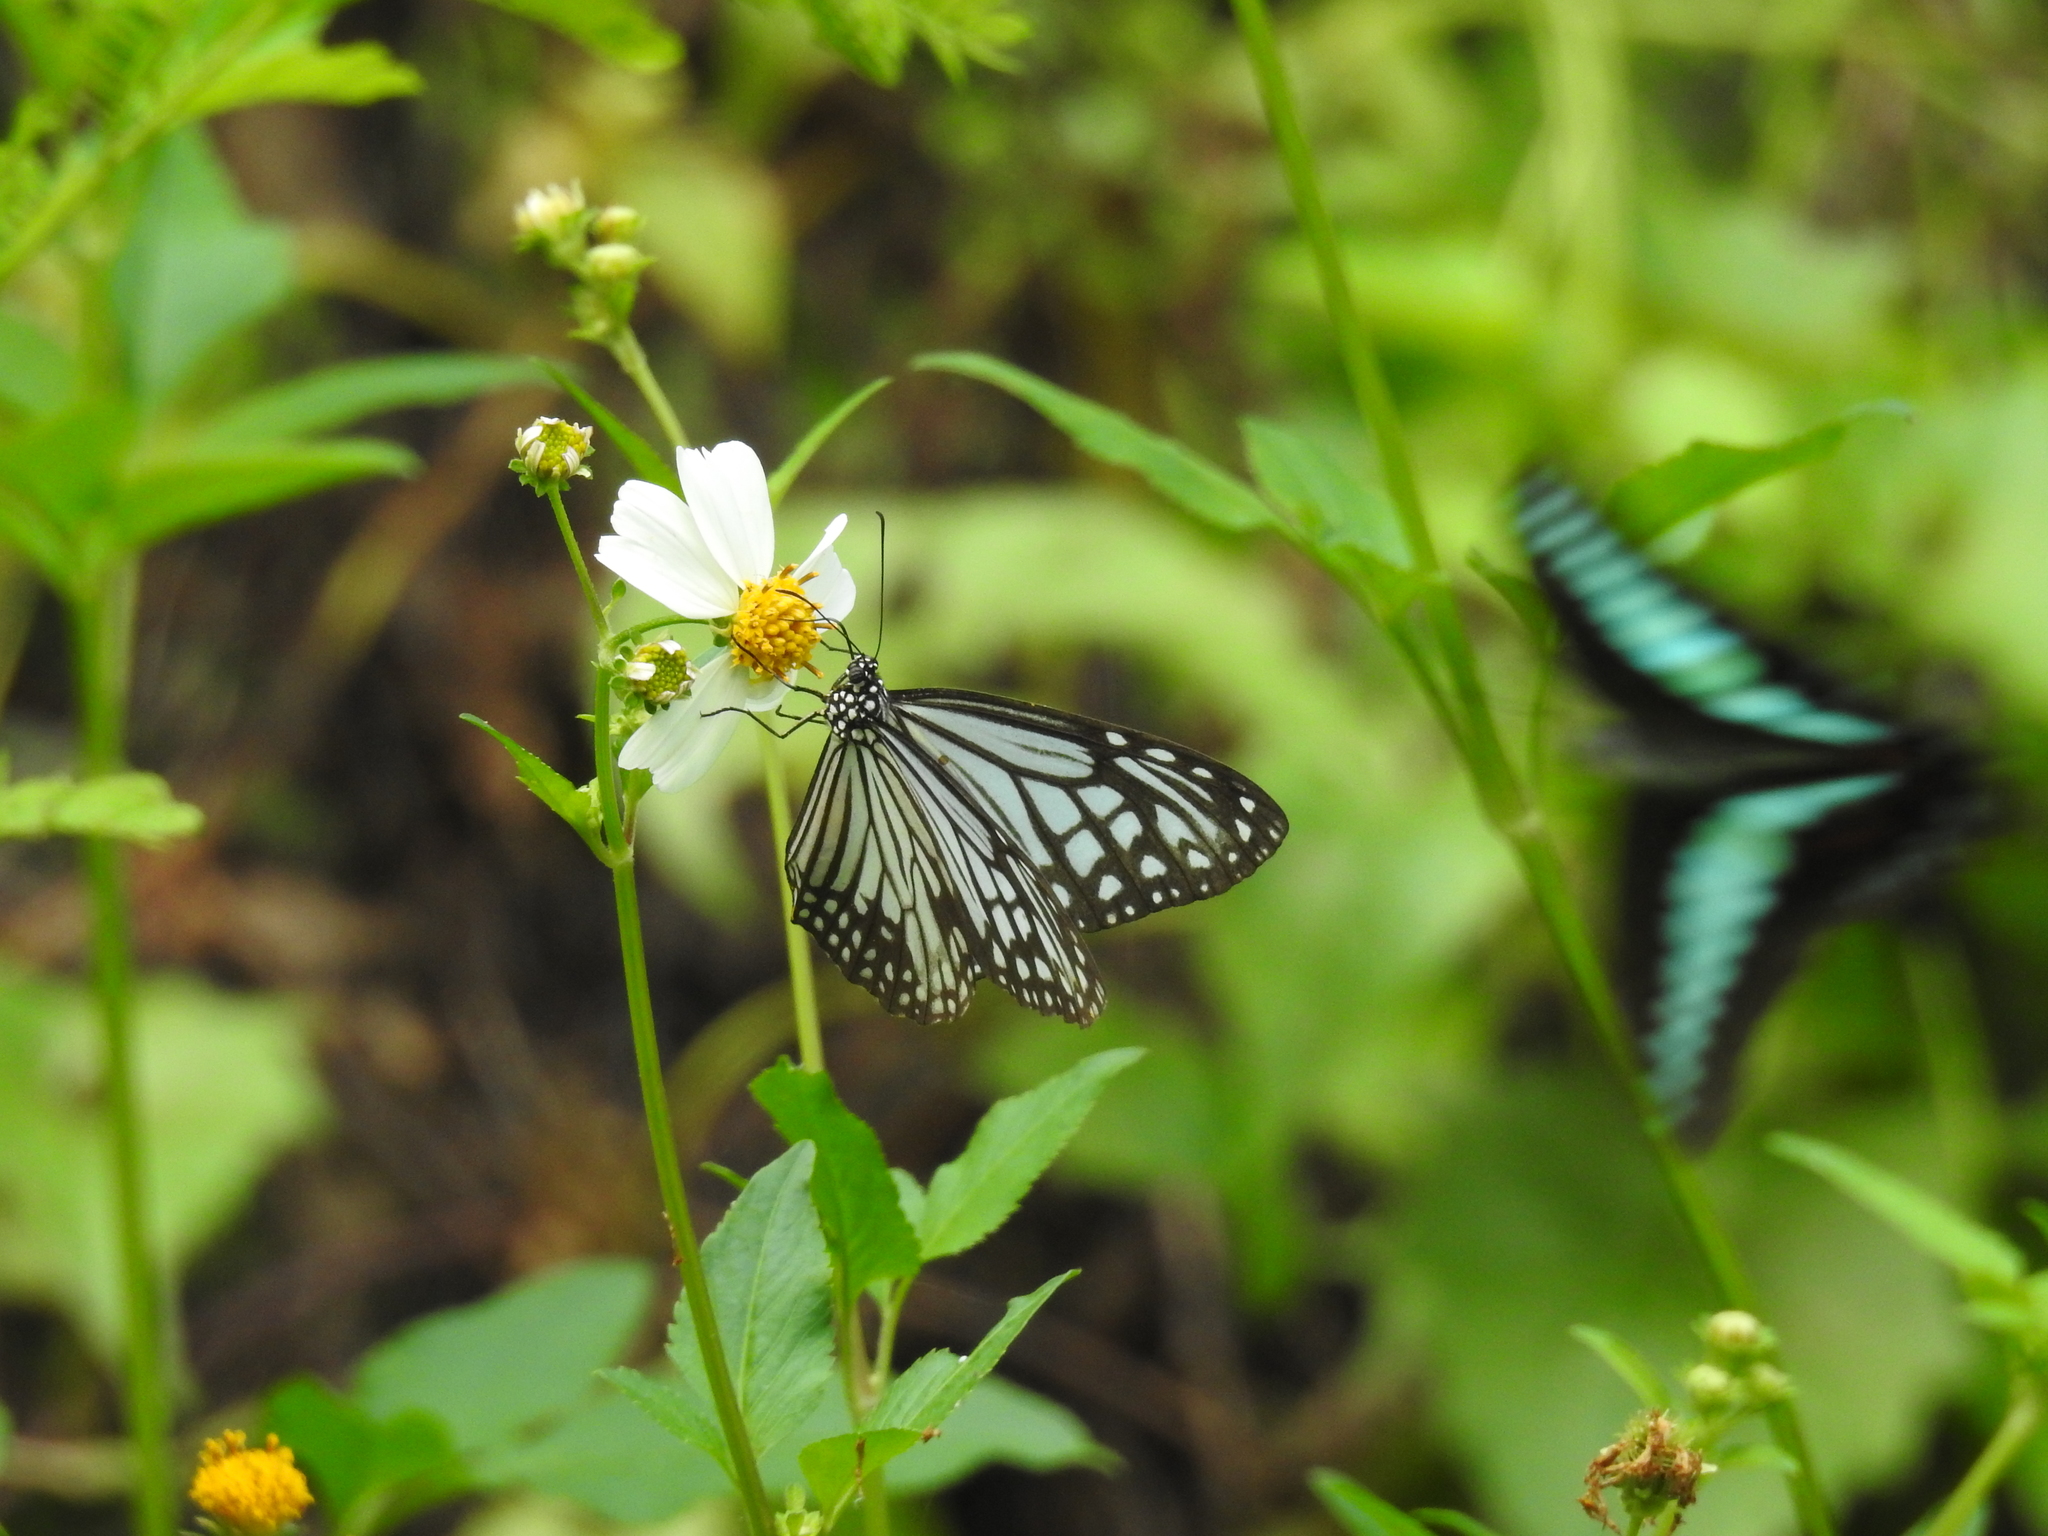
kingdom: Animalia
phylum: Arthropoda
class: Insecta
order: Lepidoptera
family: Nymphalidae
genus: Parantica
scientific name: Parantica aglea
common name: Glassy tiger
